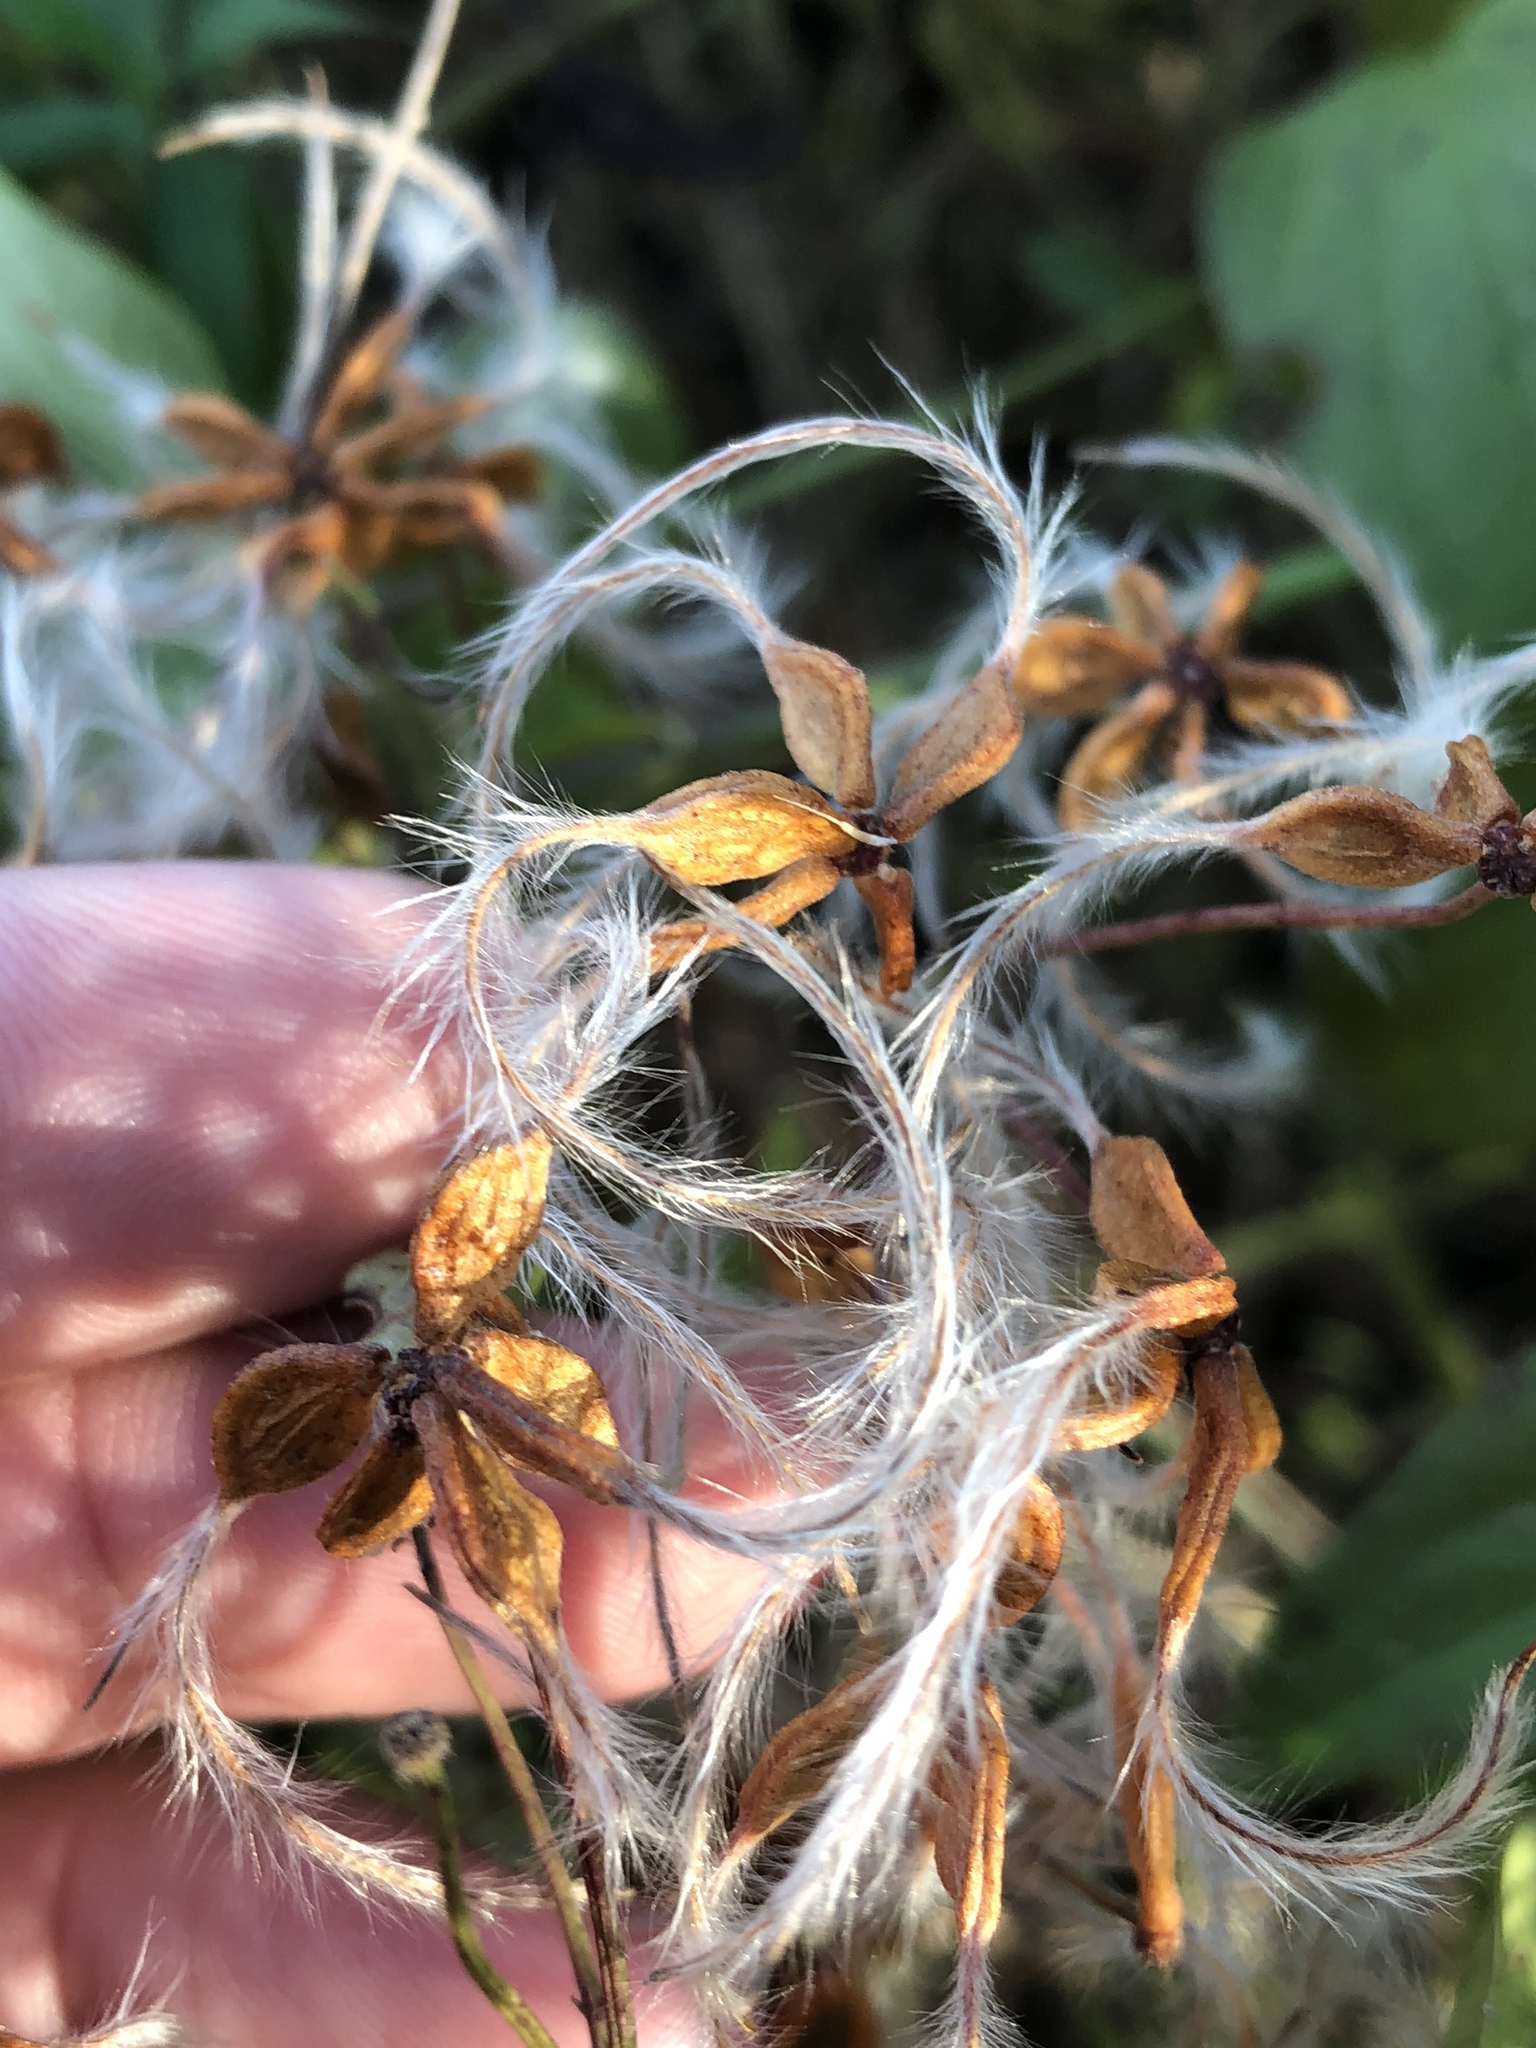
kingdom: Plantae
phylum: Tracheophyta
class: Magnoliopsida
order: Ranunculales
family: Ranunculaceae
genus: Clematis
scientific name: Clematis terniflora
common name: Sweet autumn clematis
